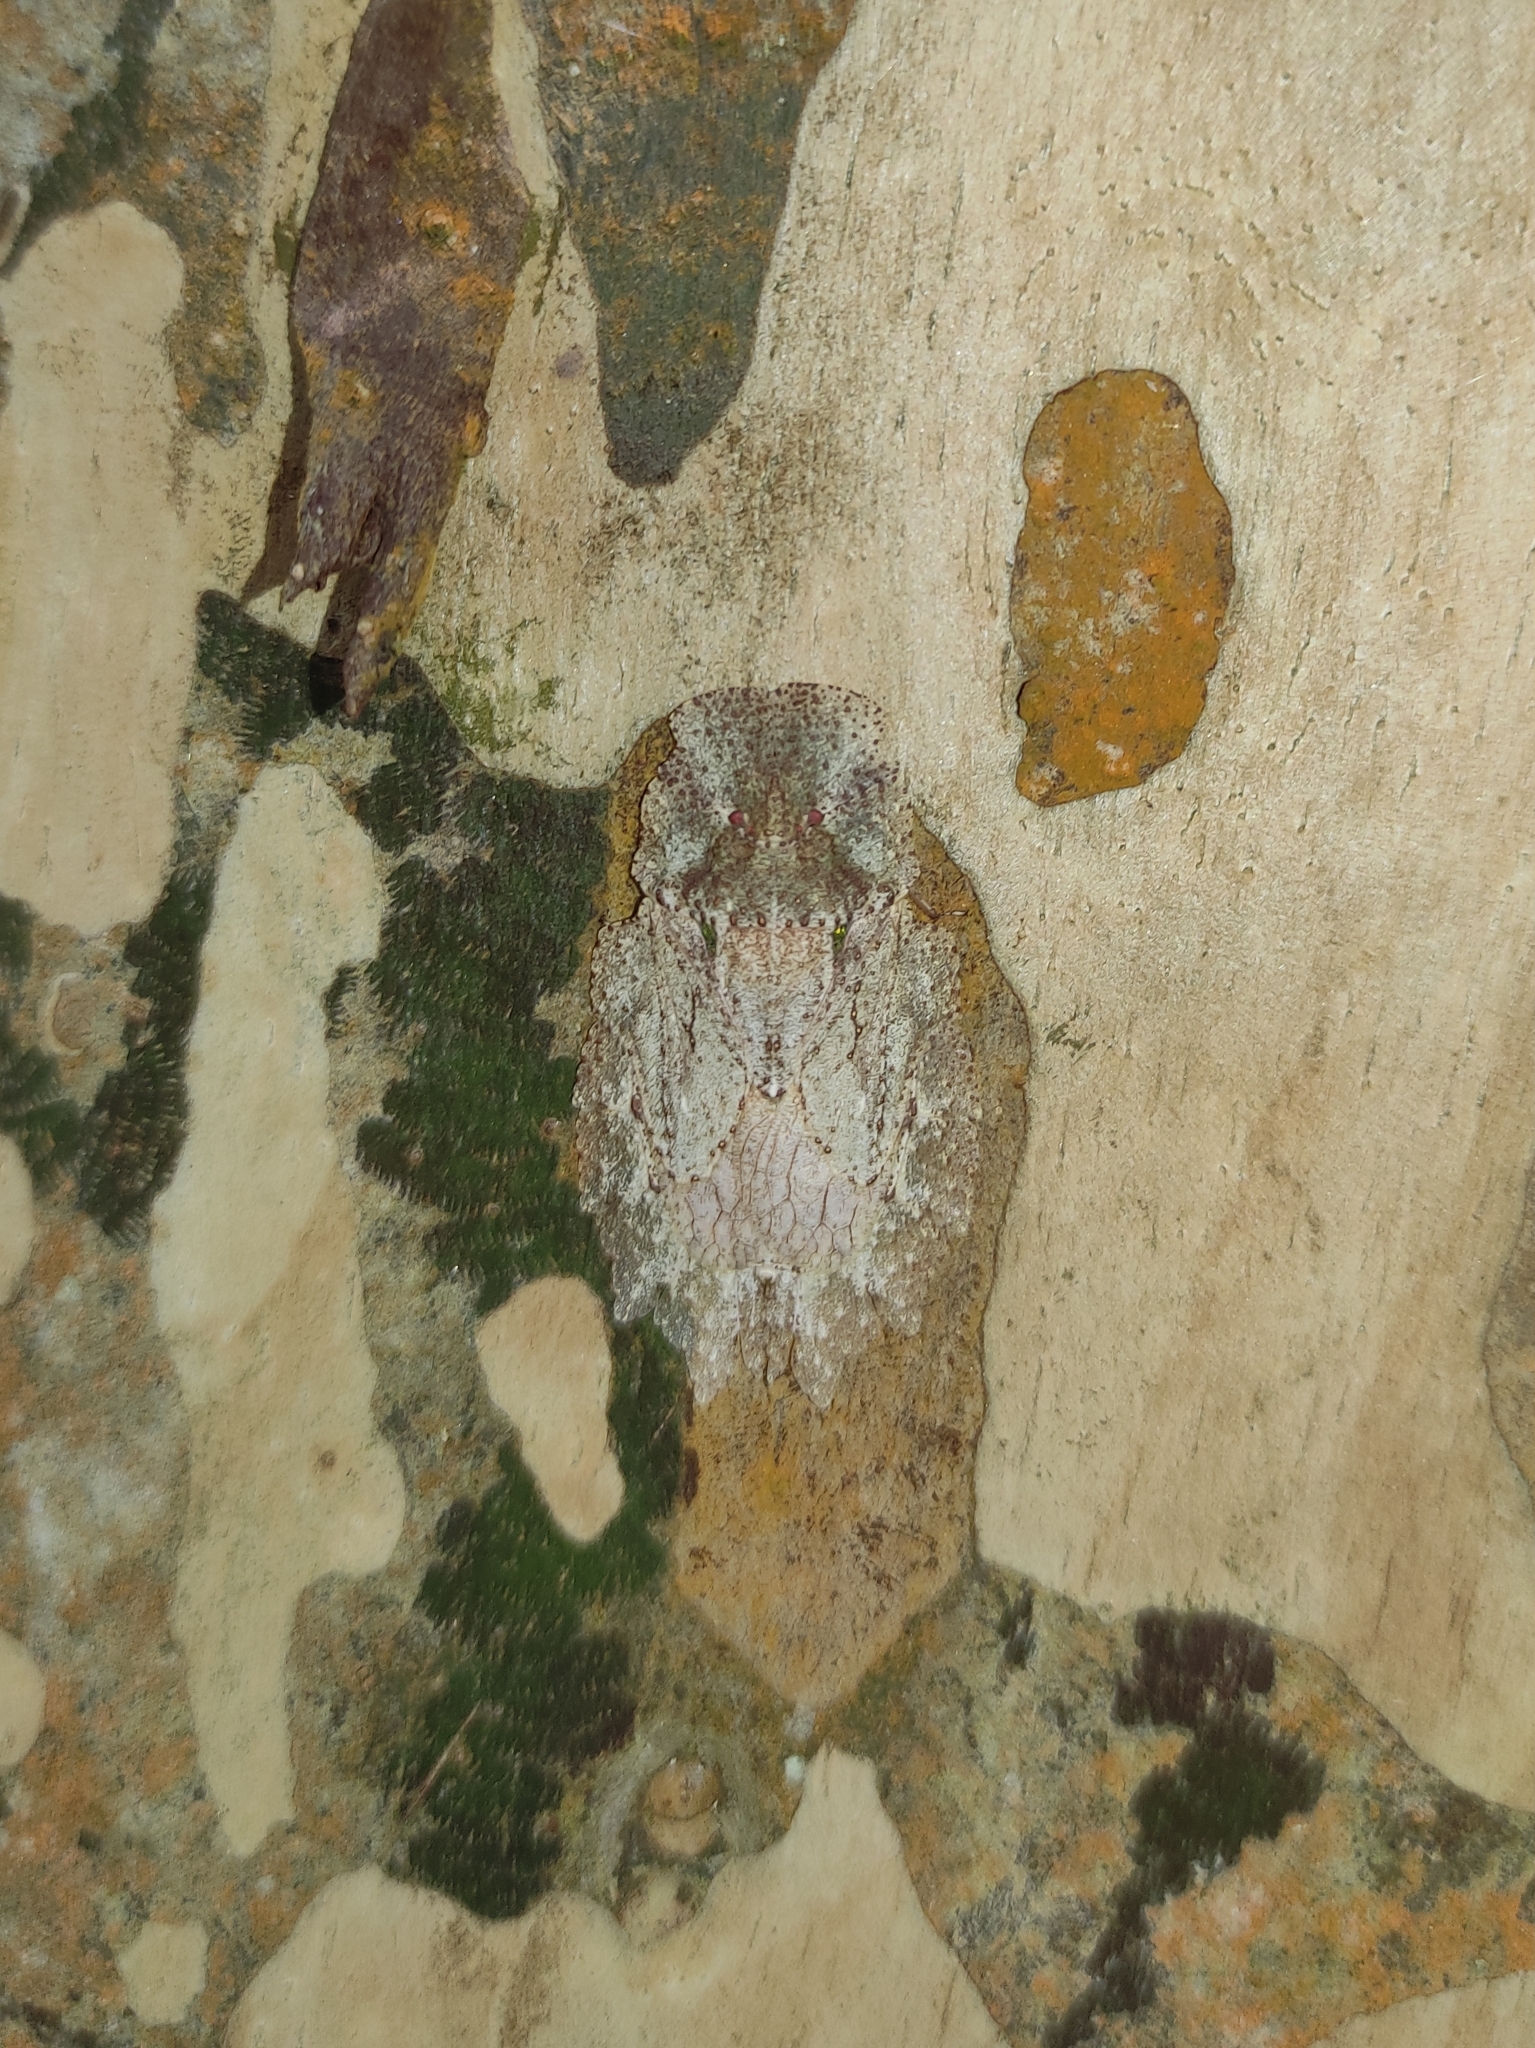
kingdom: Animalia
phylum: Arthropoda
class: Insecta
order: Hemiptera
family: Phleides
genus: Phloea
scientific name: Phloea
